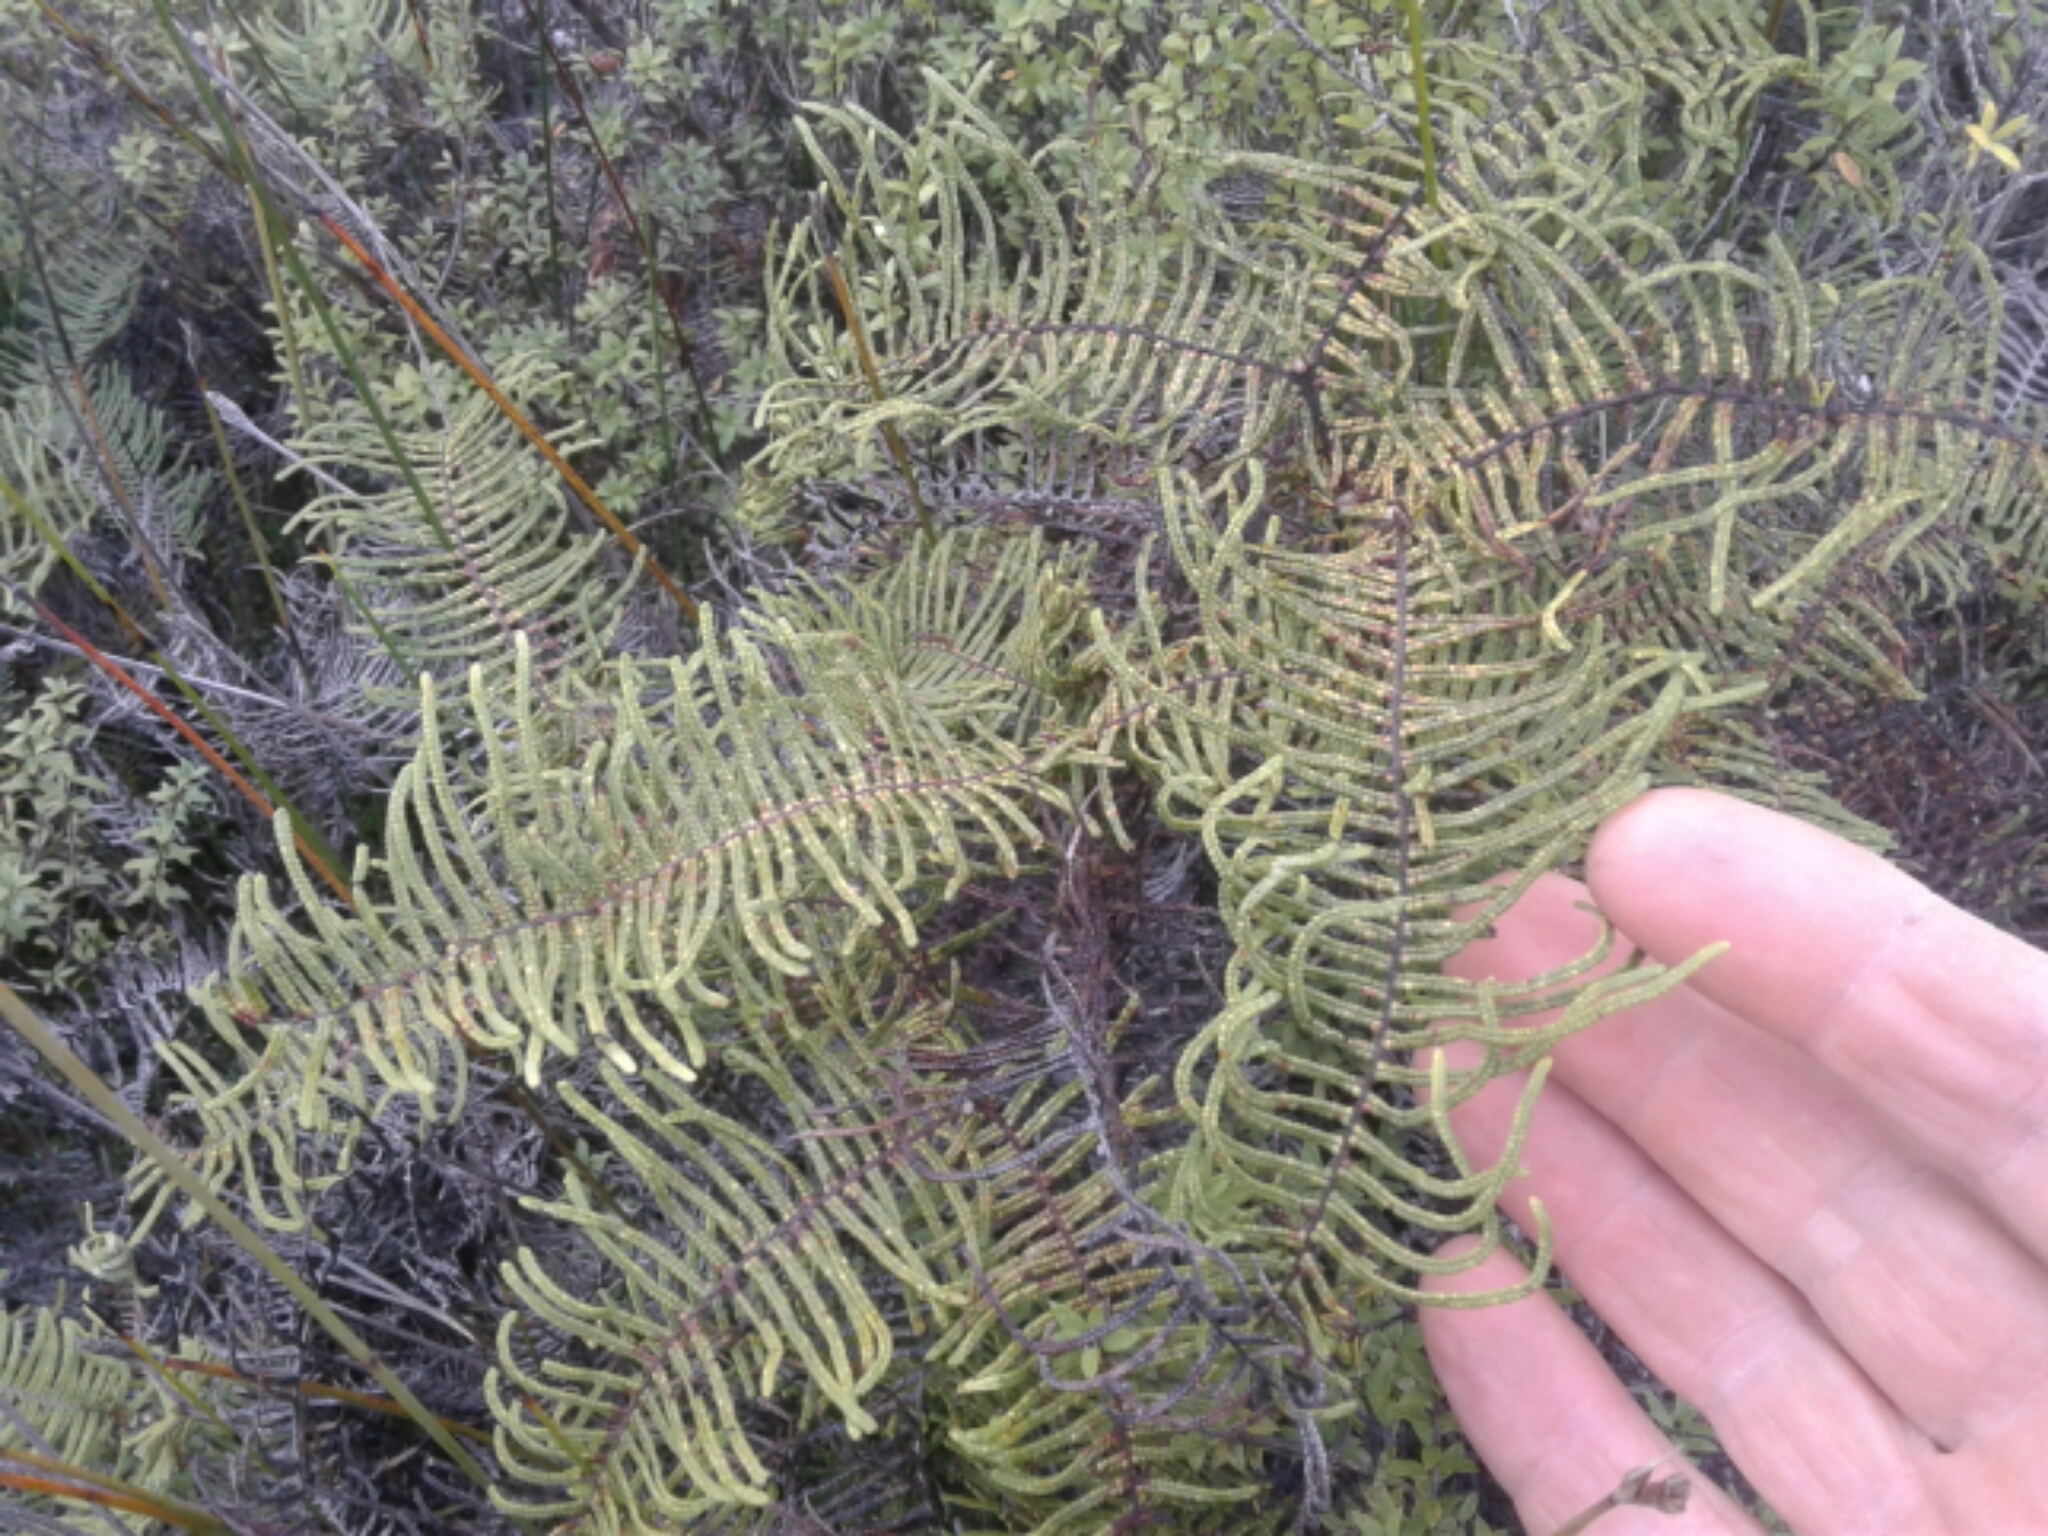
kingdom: Plantae
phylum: Tracheophyta
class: Polypodiopsida
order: Gleicheniales
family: Gleicheniaceae
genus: Gleichenia
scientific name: Gleichenia dicarpa
